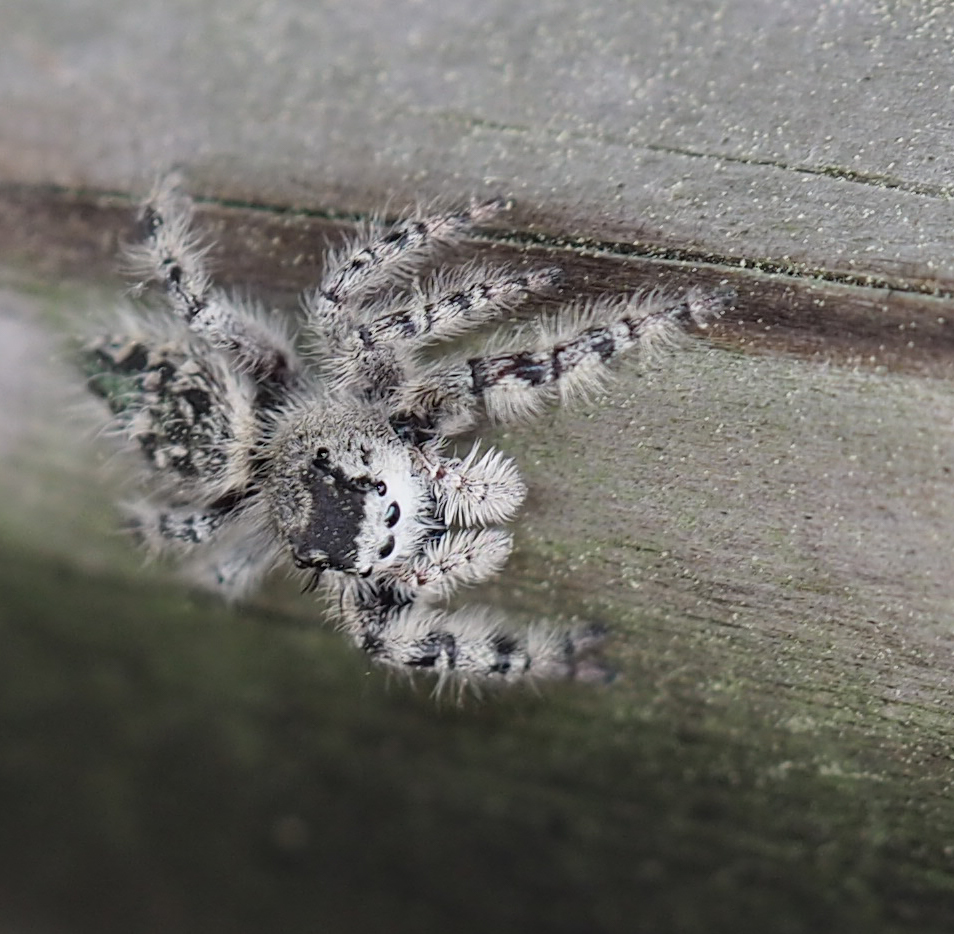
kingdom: Animalia
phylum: Arthropoda
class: Arachnida
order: Araneae
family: Salticidae
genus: Phidippus
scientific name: Phidippus otiosus
